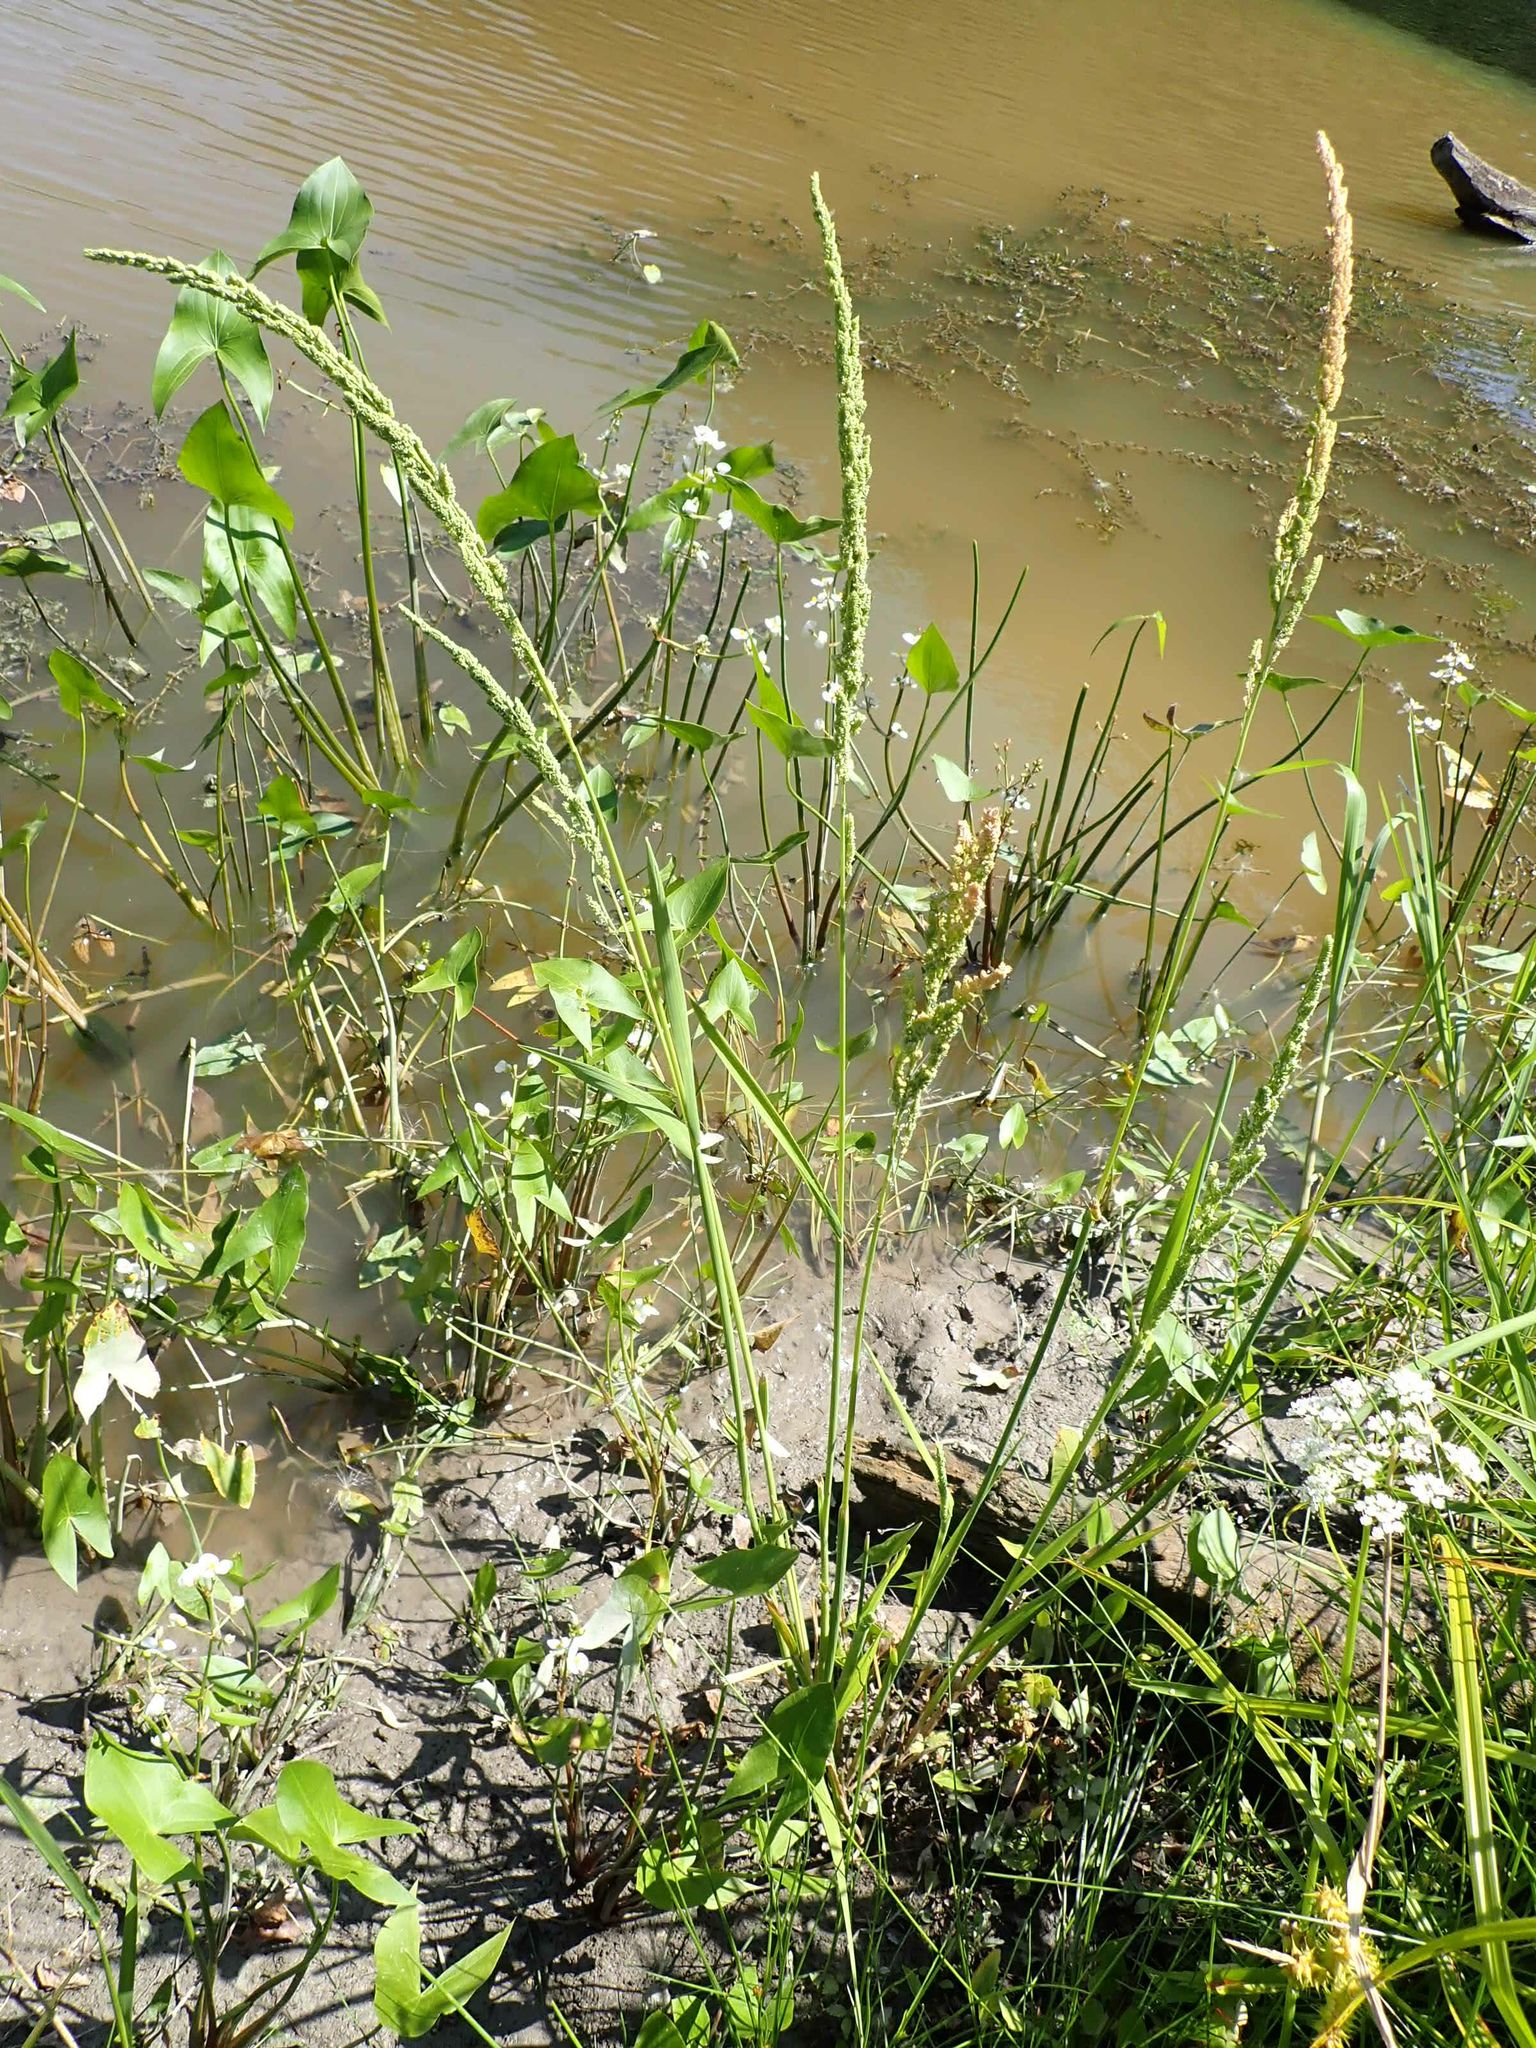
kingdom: Plantae
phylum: Tracheophyta
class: Liliopsida
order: Poales
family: Poaceae
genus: Beckmannia
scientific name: Beckmannia syzigachne
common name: American slough-grass
